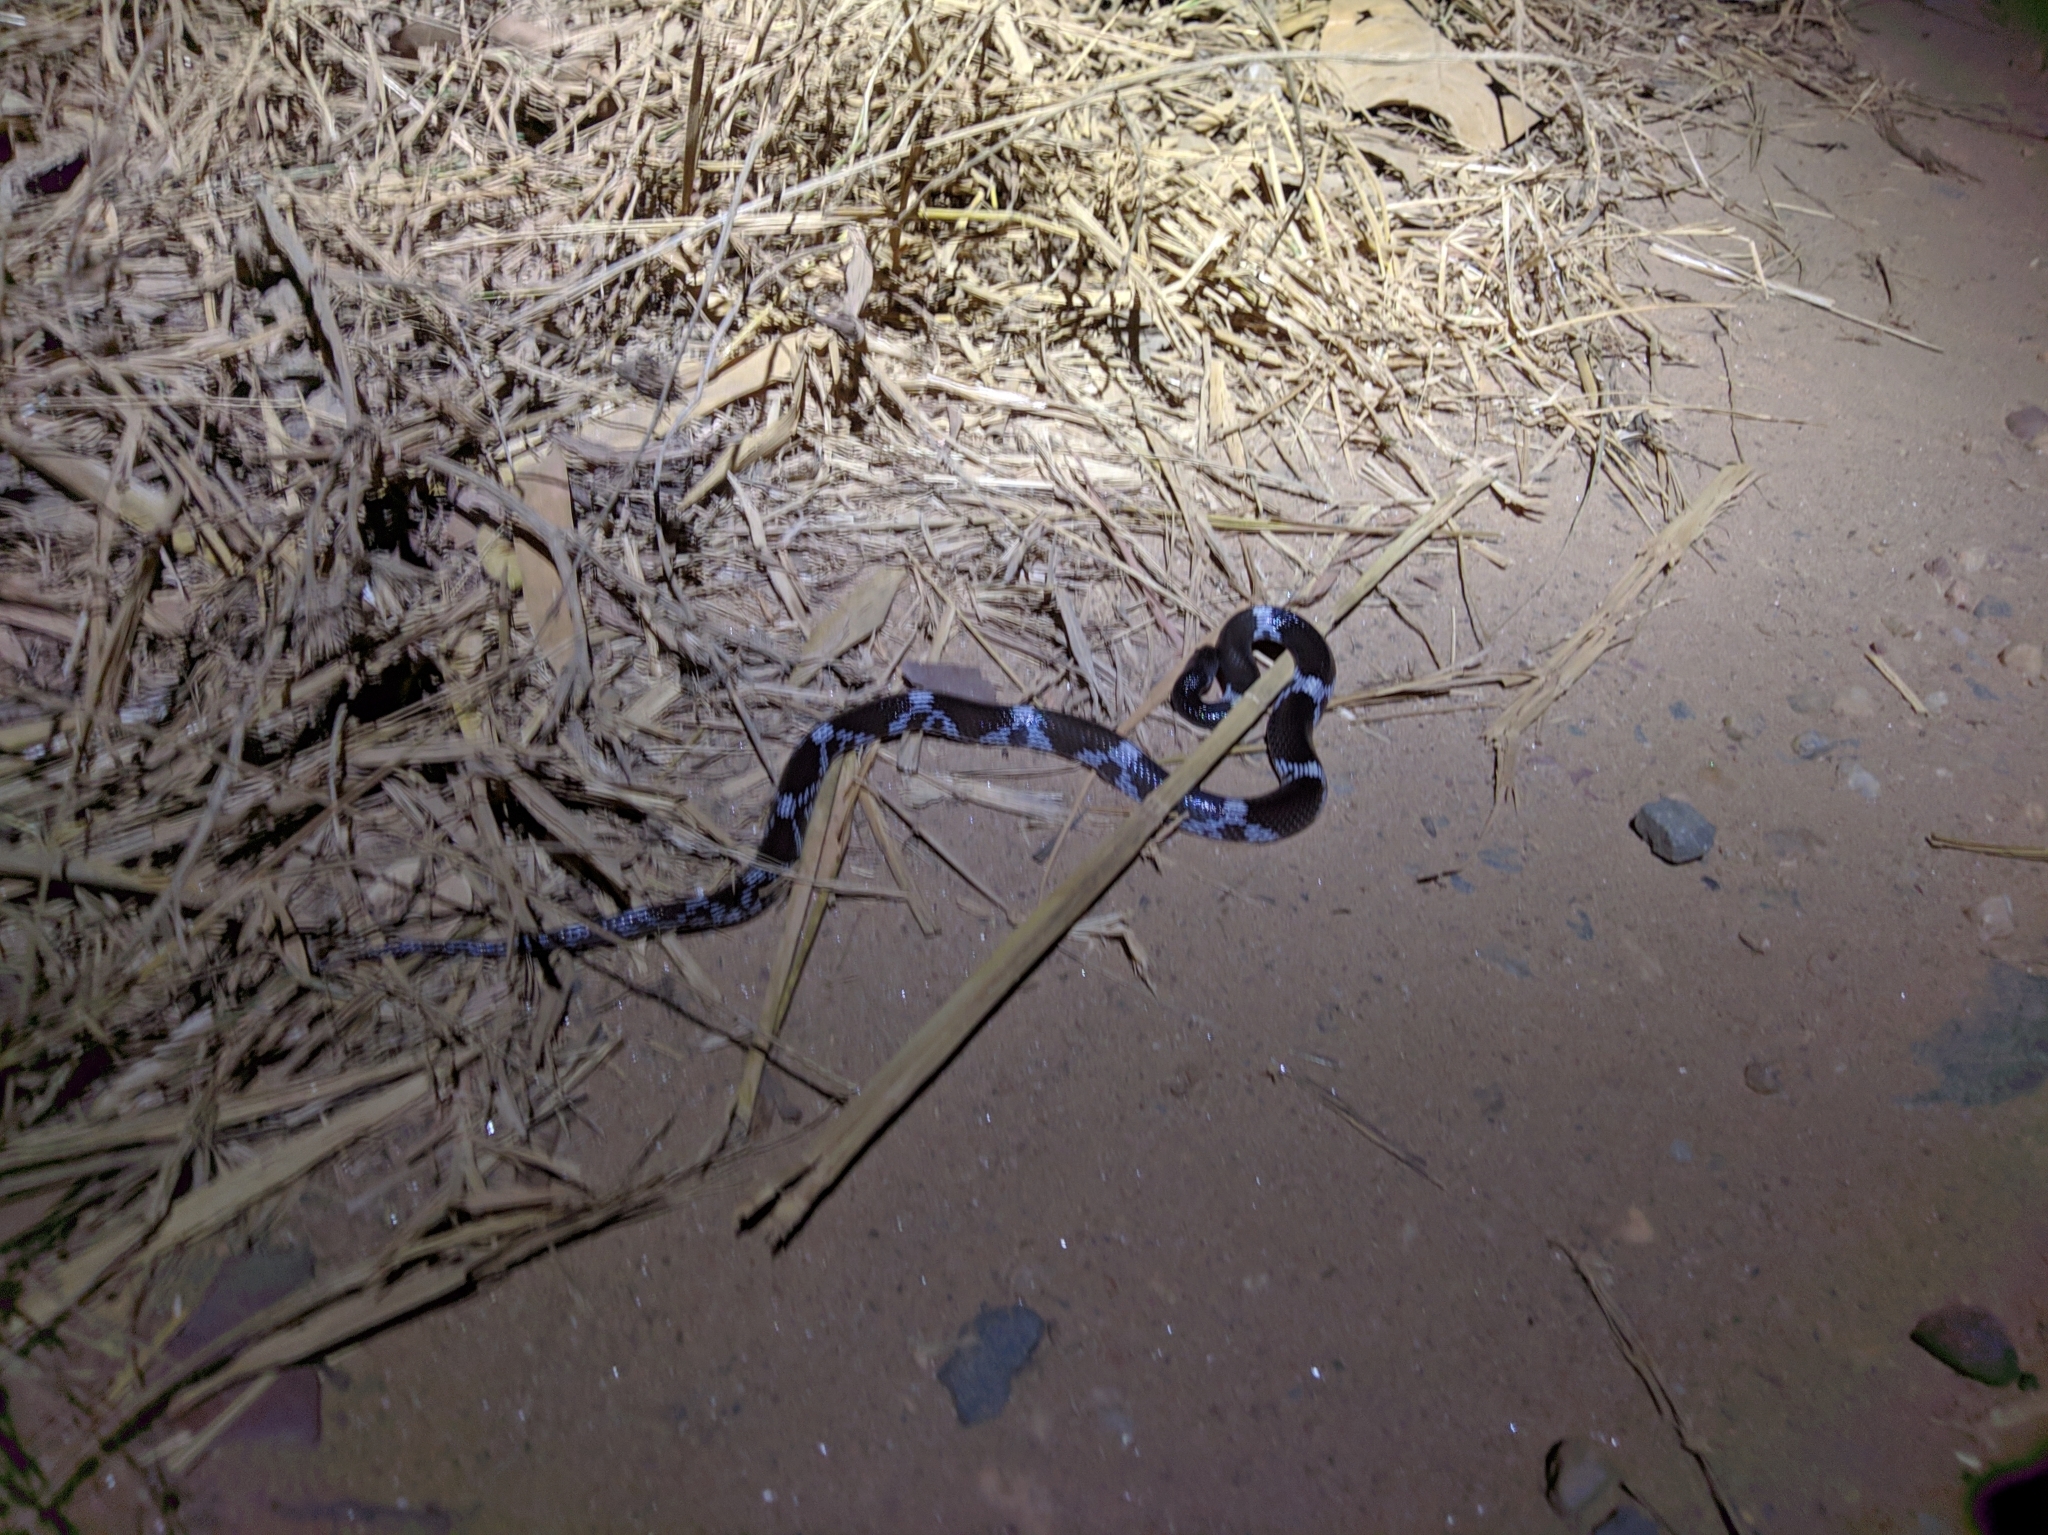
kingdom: Animalia
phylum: Chordata
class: Squamata
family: Colubridae
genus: Lycodon
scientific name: Lycodon striatus
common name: Barred wolf snake
